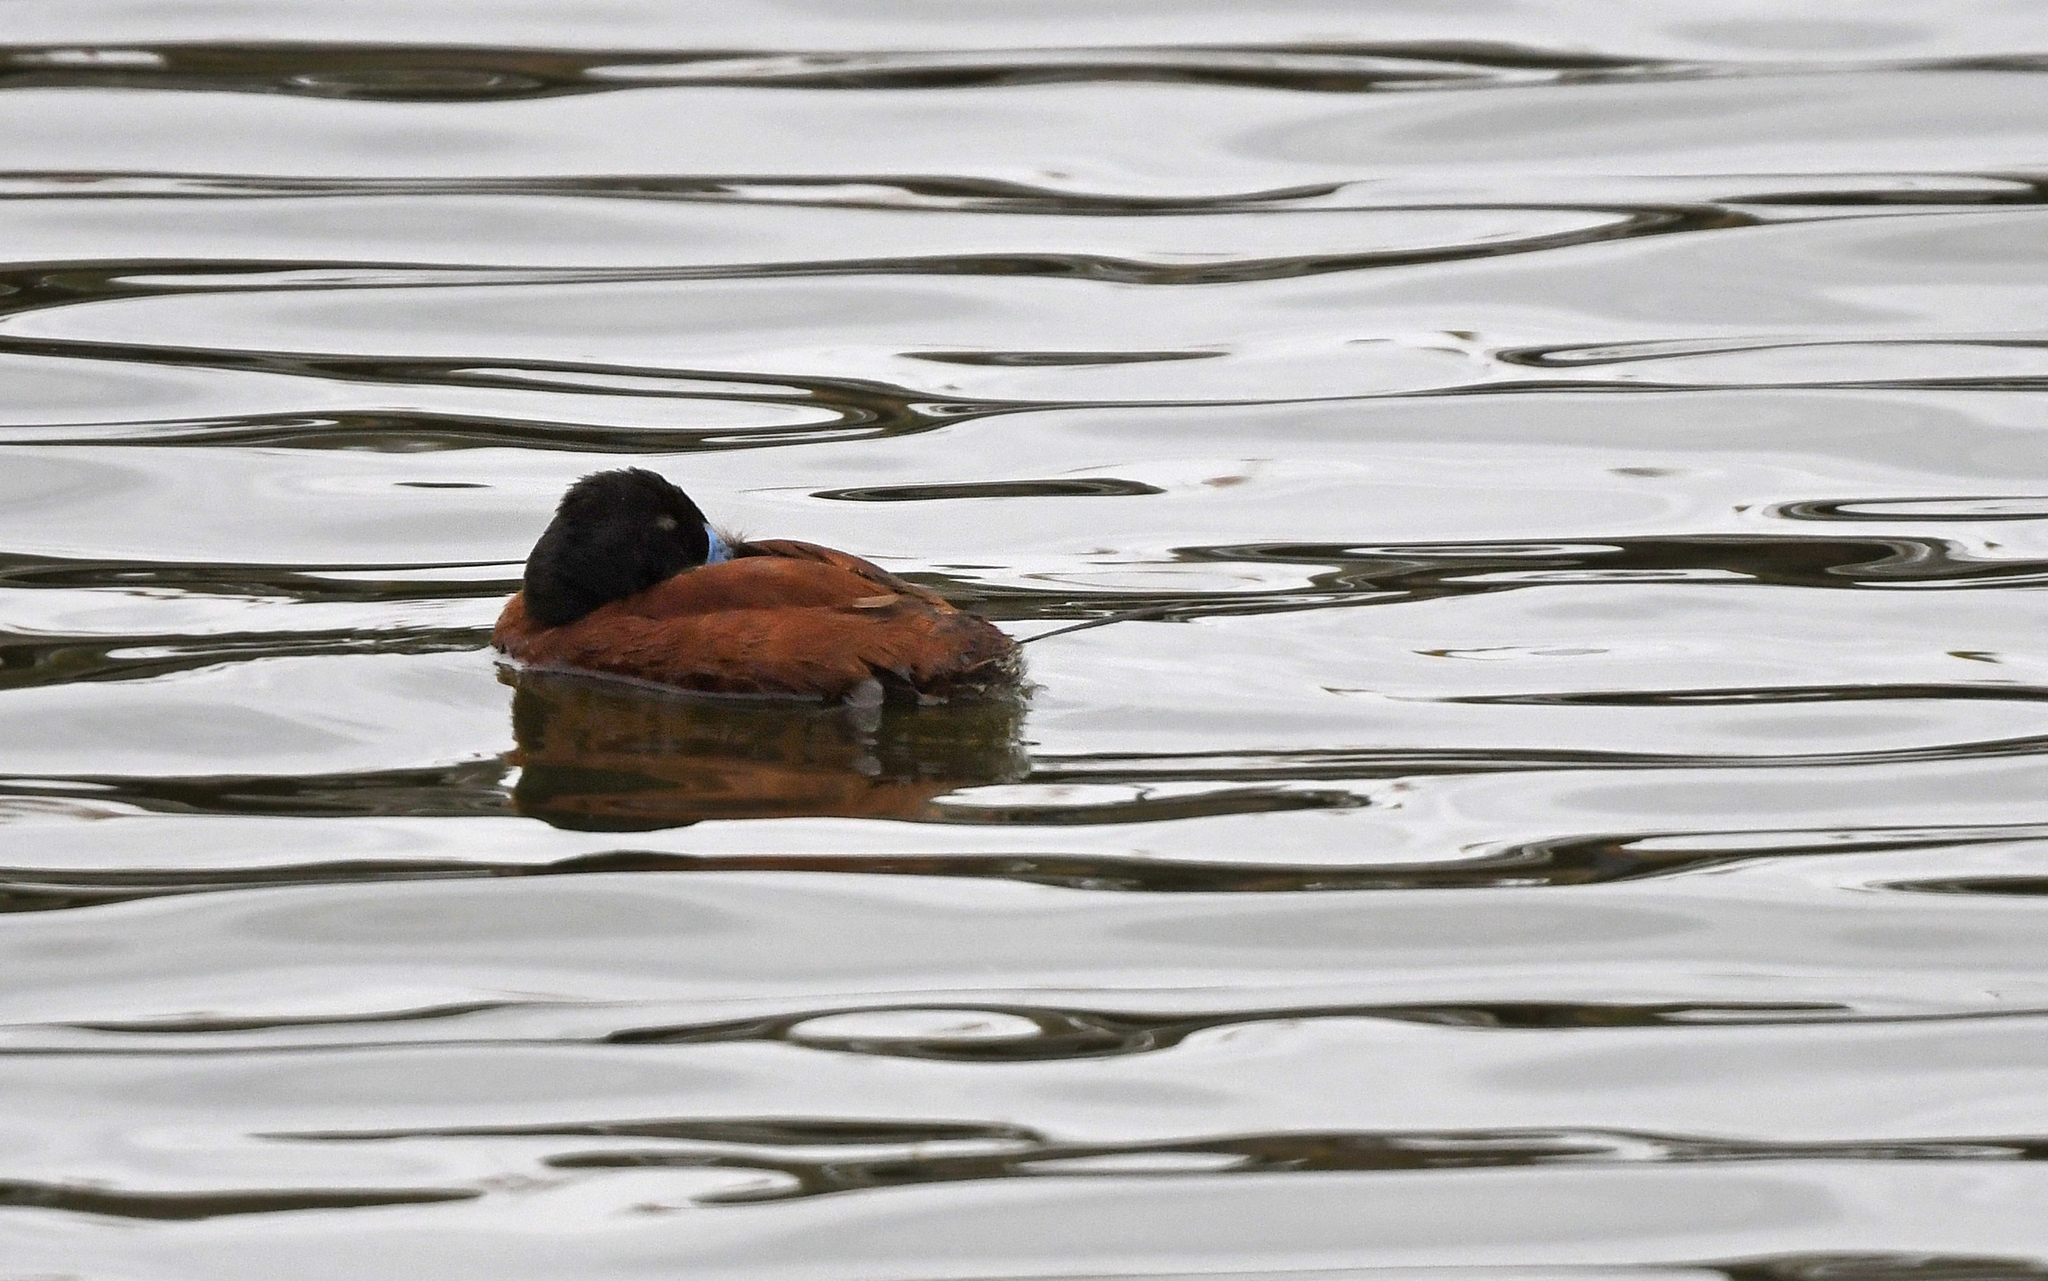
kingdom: Animalia
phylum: Chordata
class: Aves
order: Anseriformes
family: Anatidae
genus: Oxyura
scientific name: Oxyura vittata
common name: Lake duck
